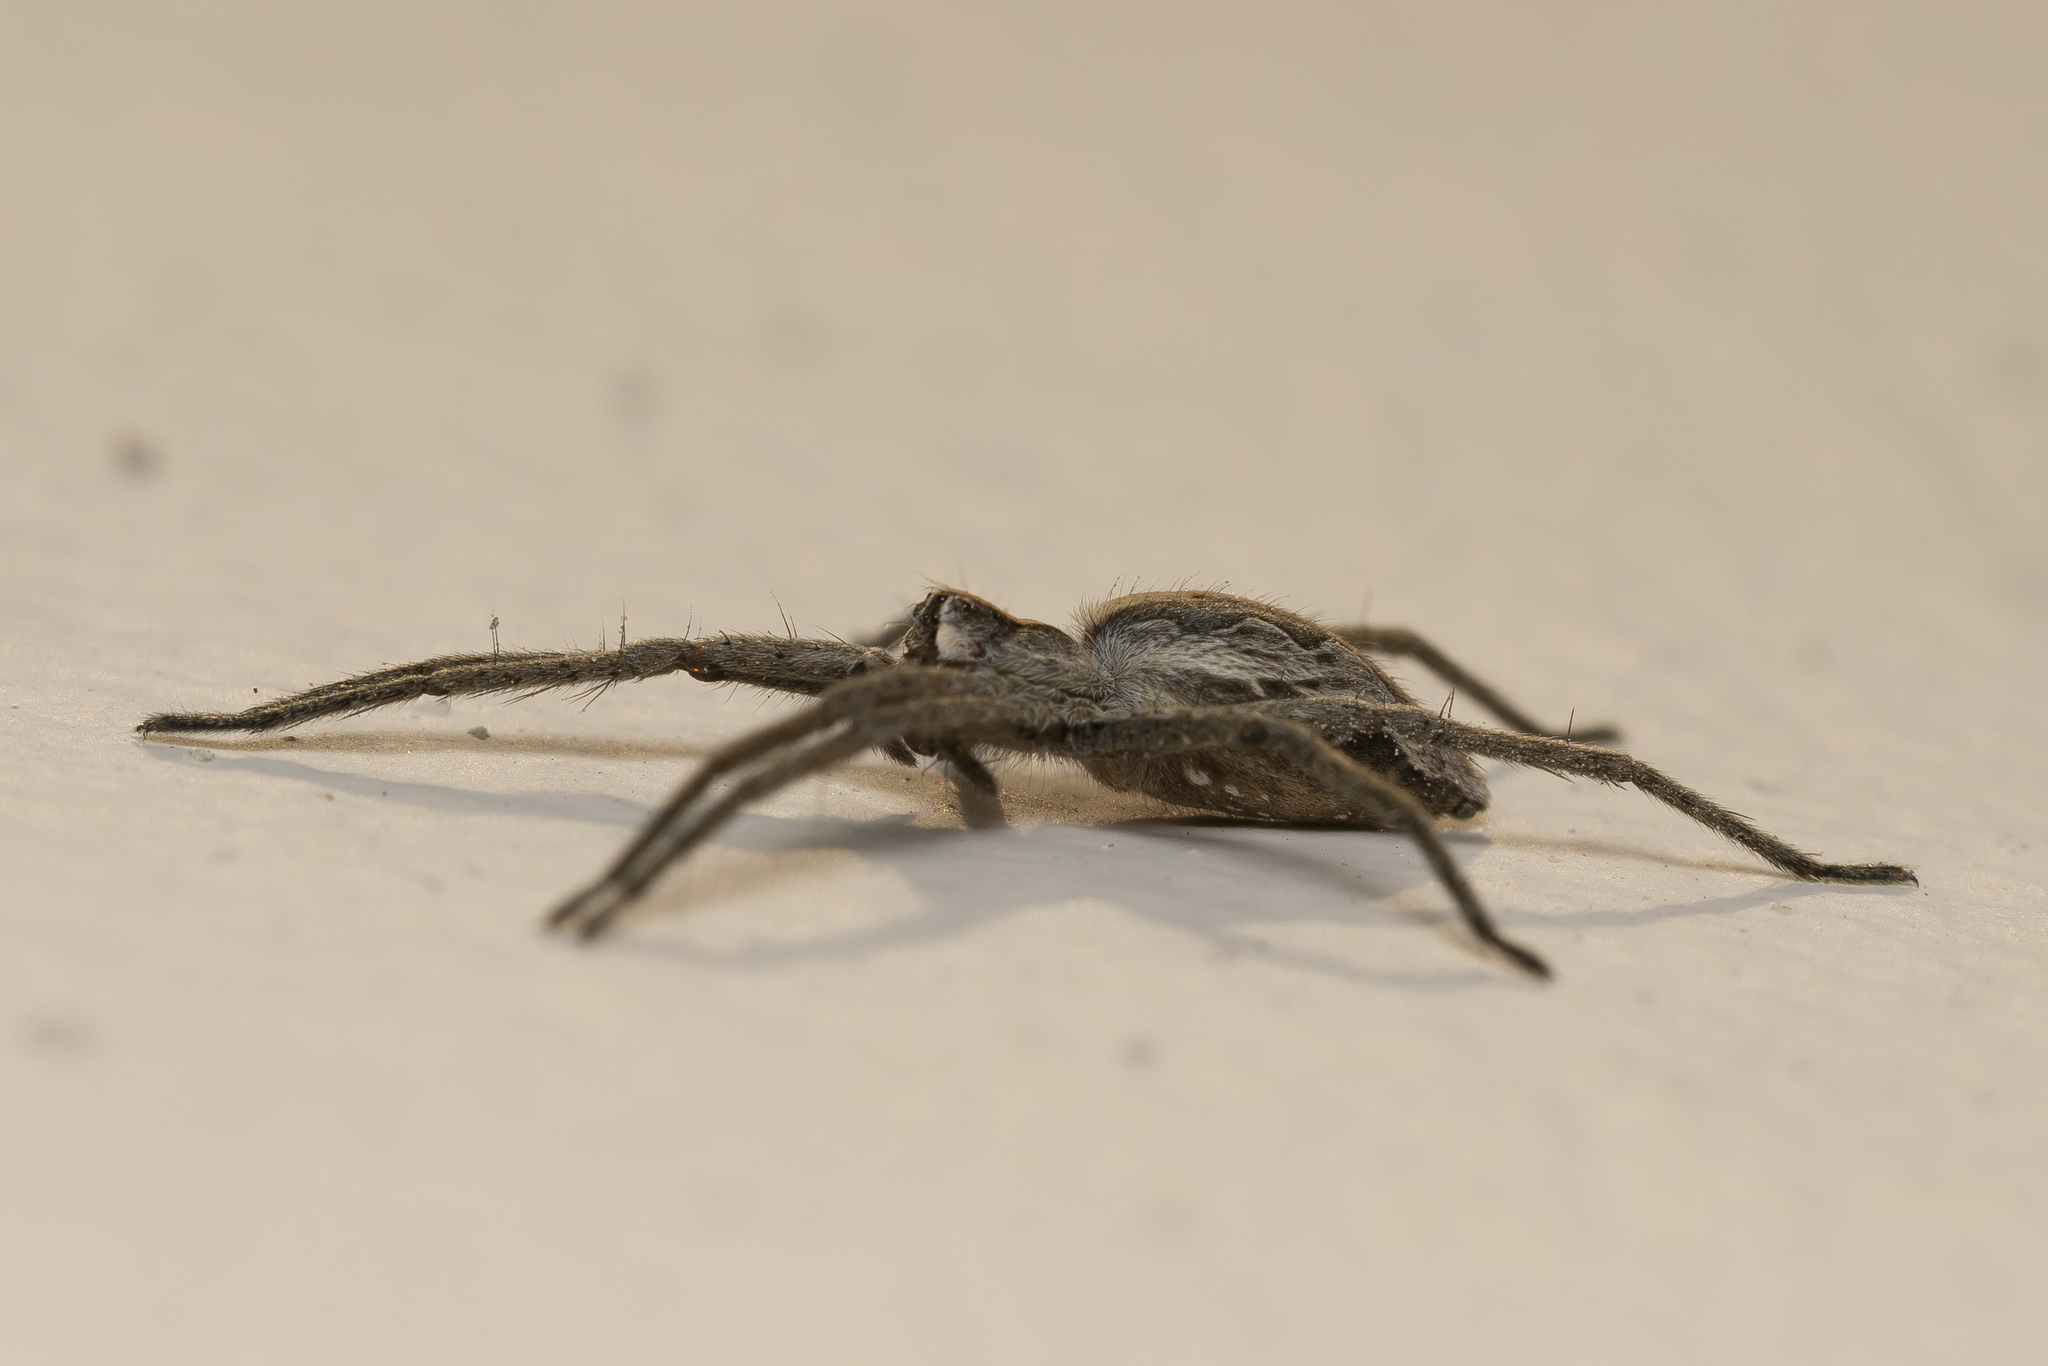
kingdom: Animalia
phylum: Arthropoda
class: Arachnida
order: Araneae
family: Pisauridae
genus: Pisaura
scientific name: Pisaura mirabilis
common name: Tent spider
